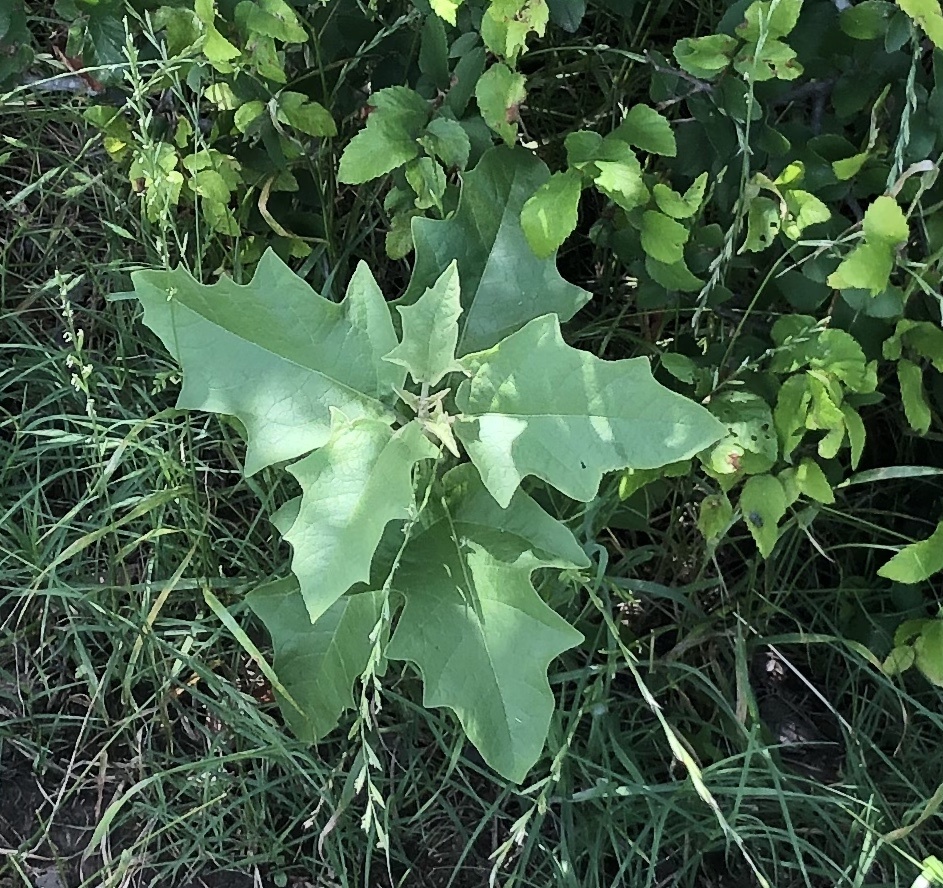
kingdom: Plantae
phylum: Tracheophyta
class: Magnoliopsida
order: Solanales
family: Solanaceae
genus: Solanum
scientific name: Solanum carolinense
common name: Horse-nettle
